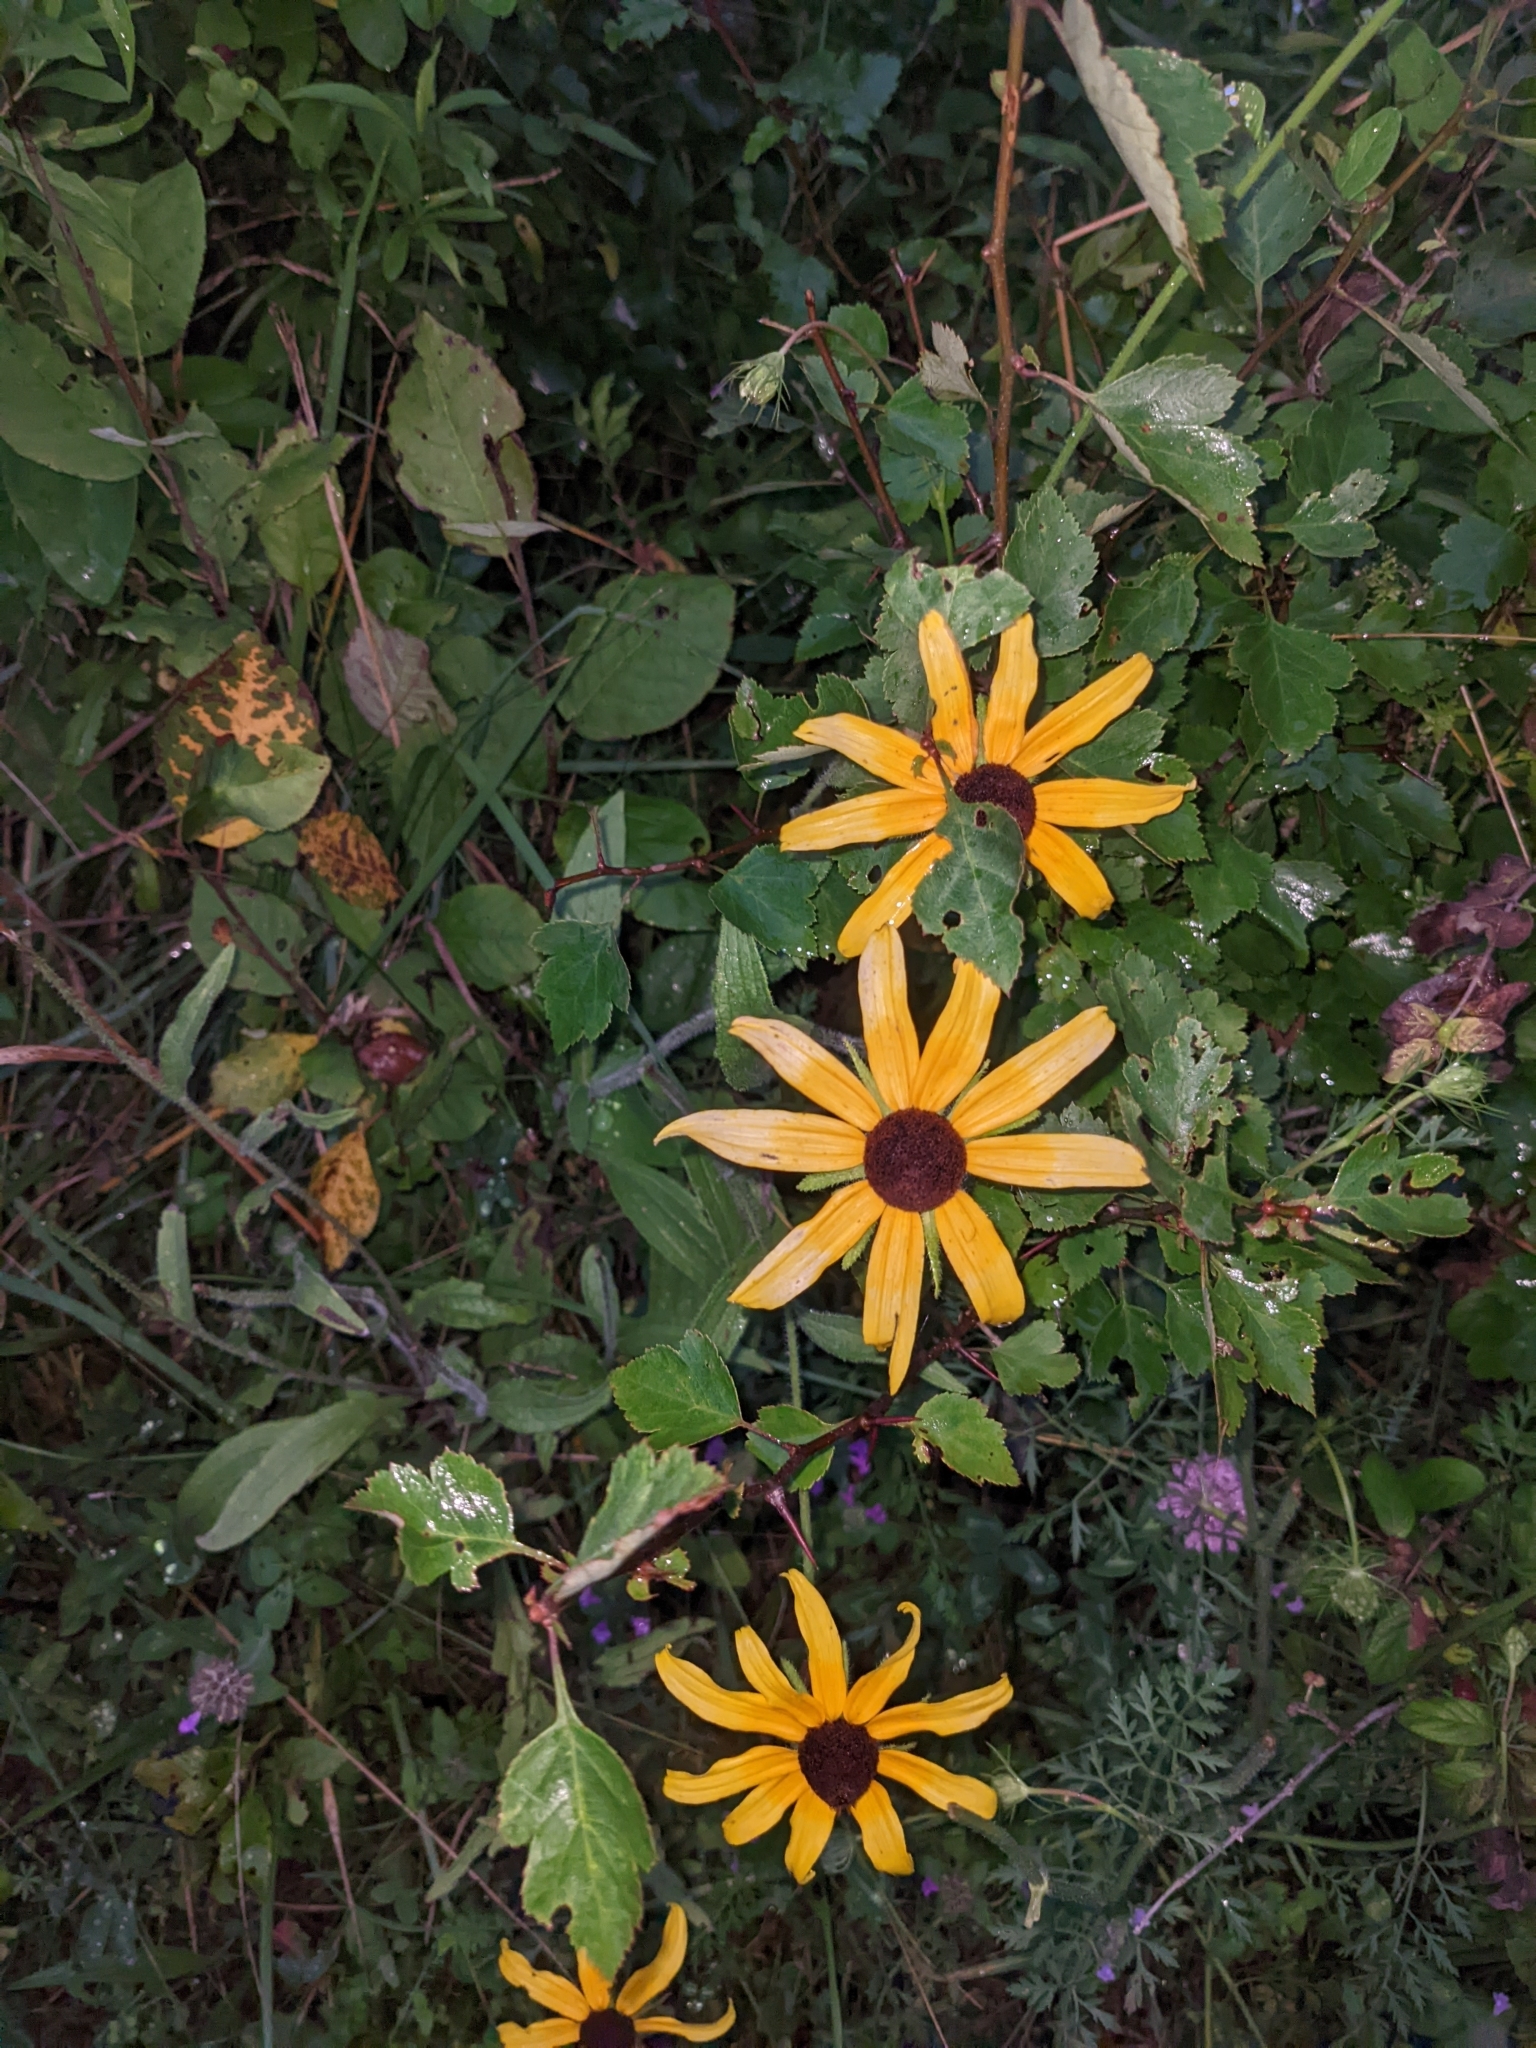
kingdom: Plantae
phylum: Tracheophyta
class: Magnoliopsida
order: Asterales
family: Asteraceae
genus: Rudbeckia
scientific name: Rudbeckia hirta
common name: Black-eyed-susan
